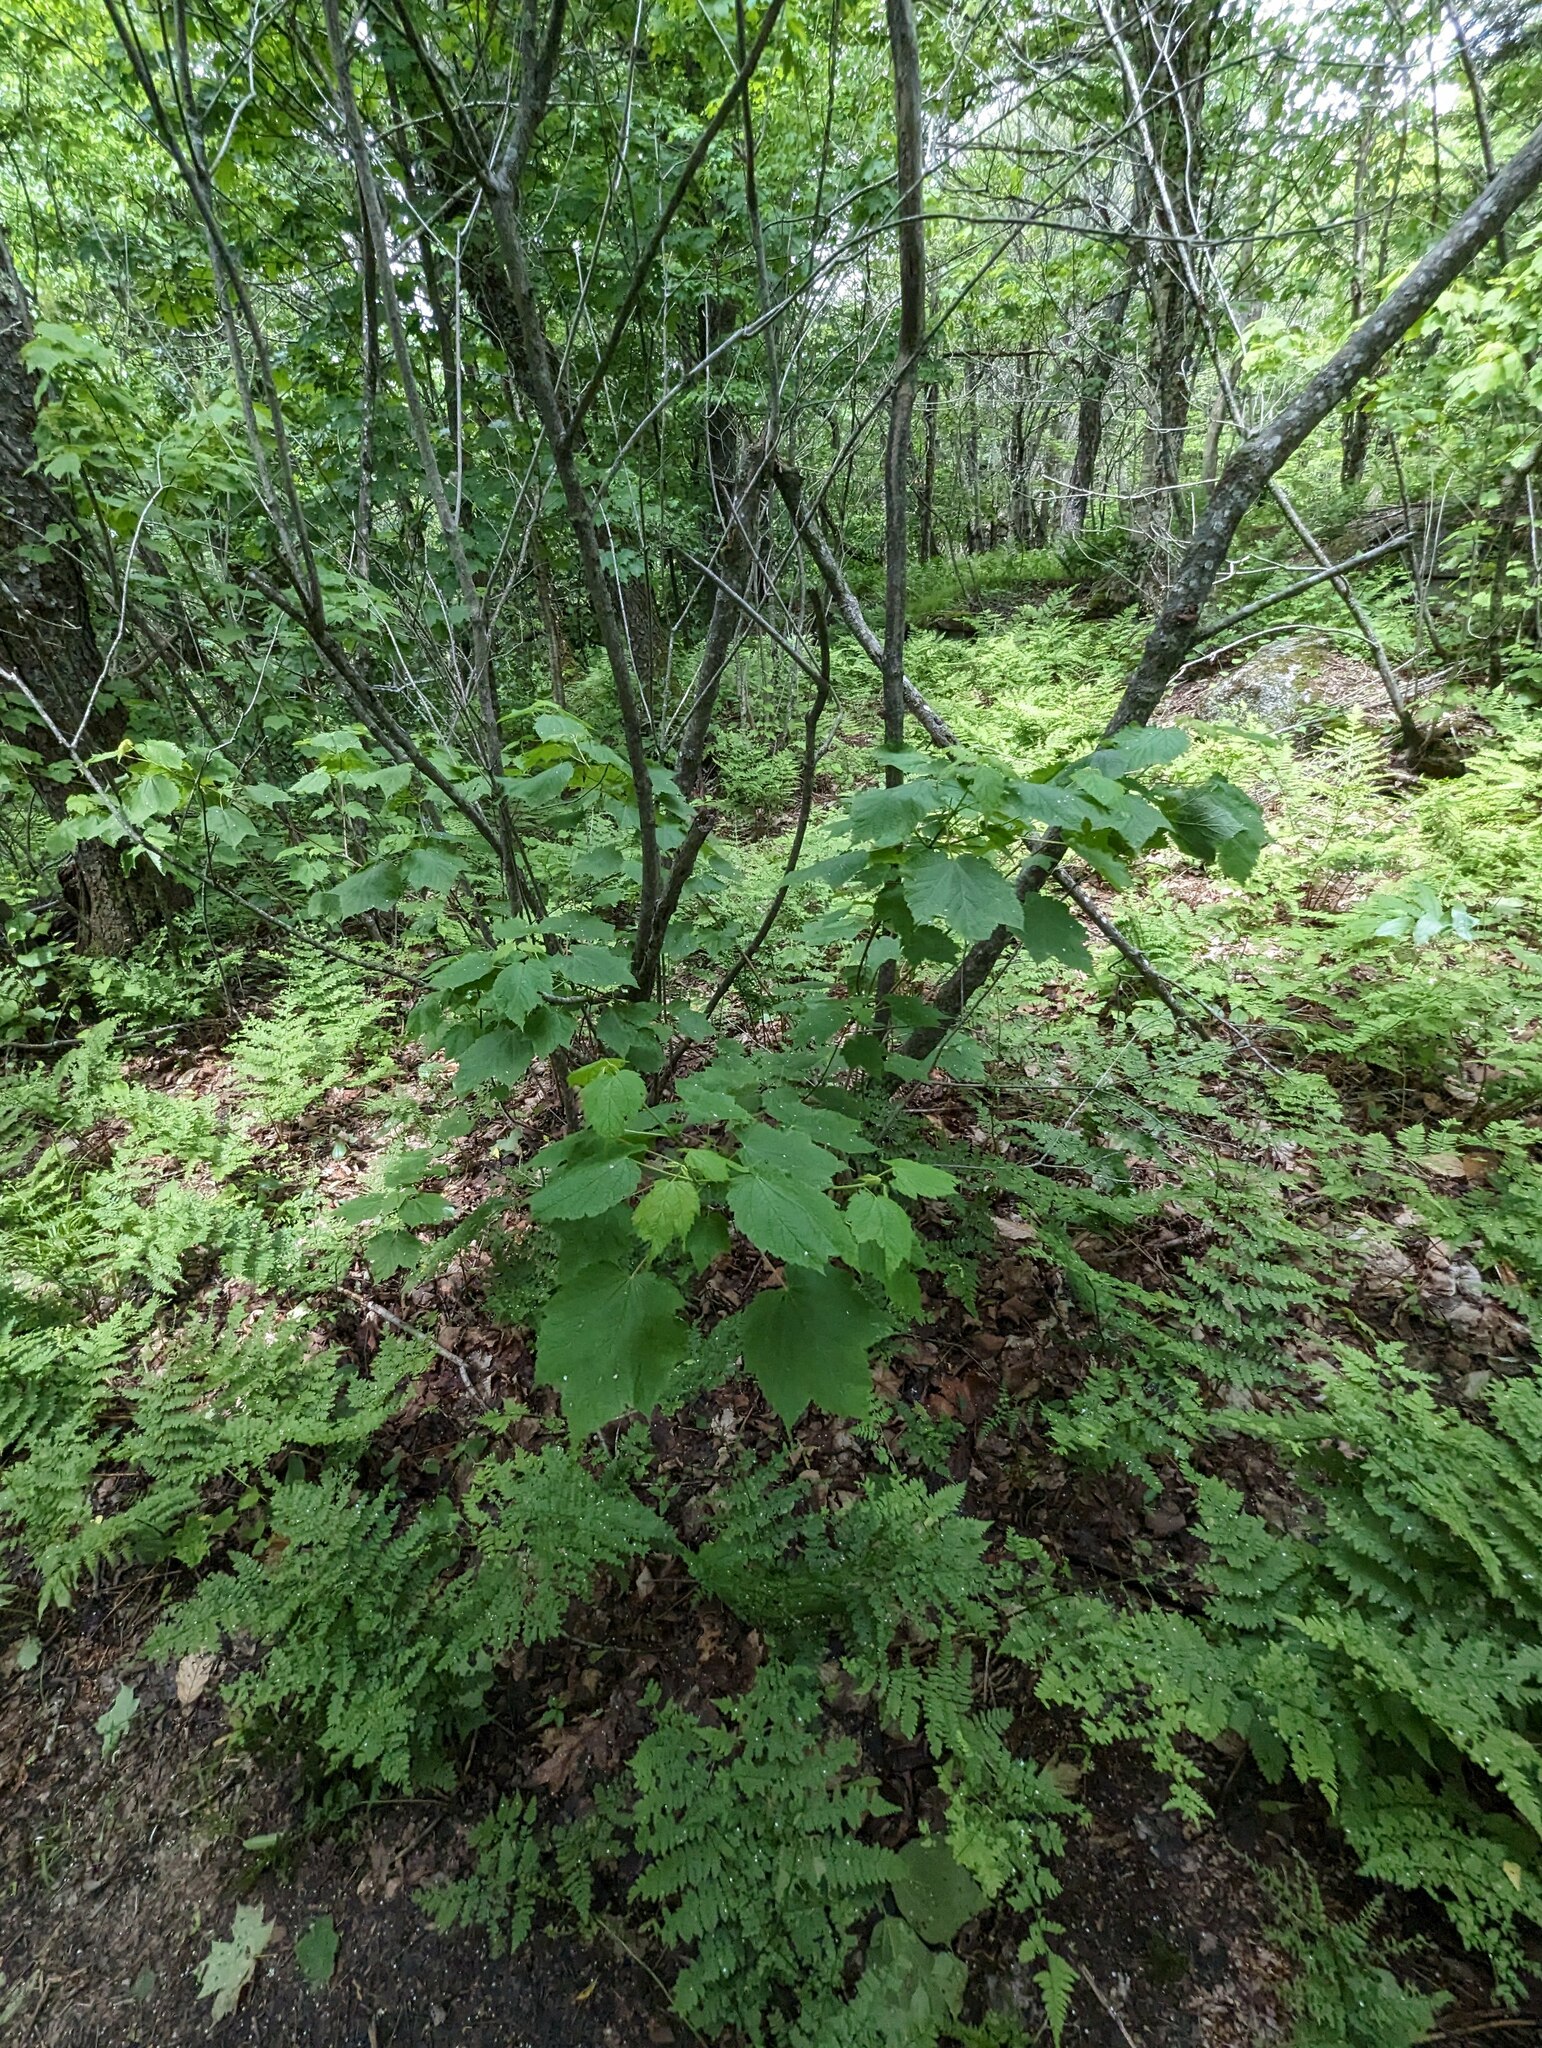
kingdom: Plantae
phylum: Tracheophyta
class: Magnoliopsida
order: Sapindales
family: Sapindaceae
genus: Acer
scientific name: Acer spicatum
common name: Mountain maple
